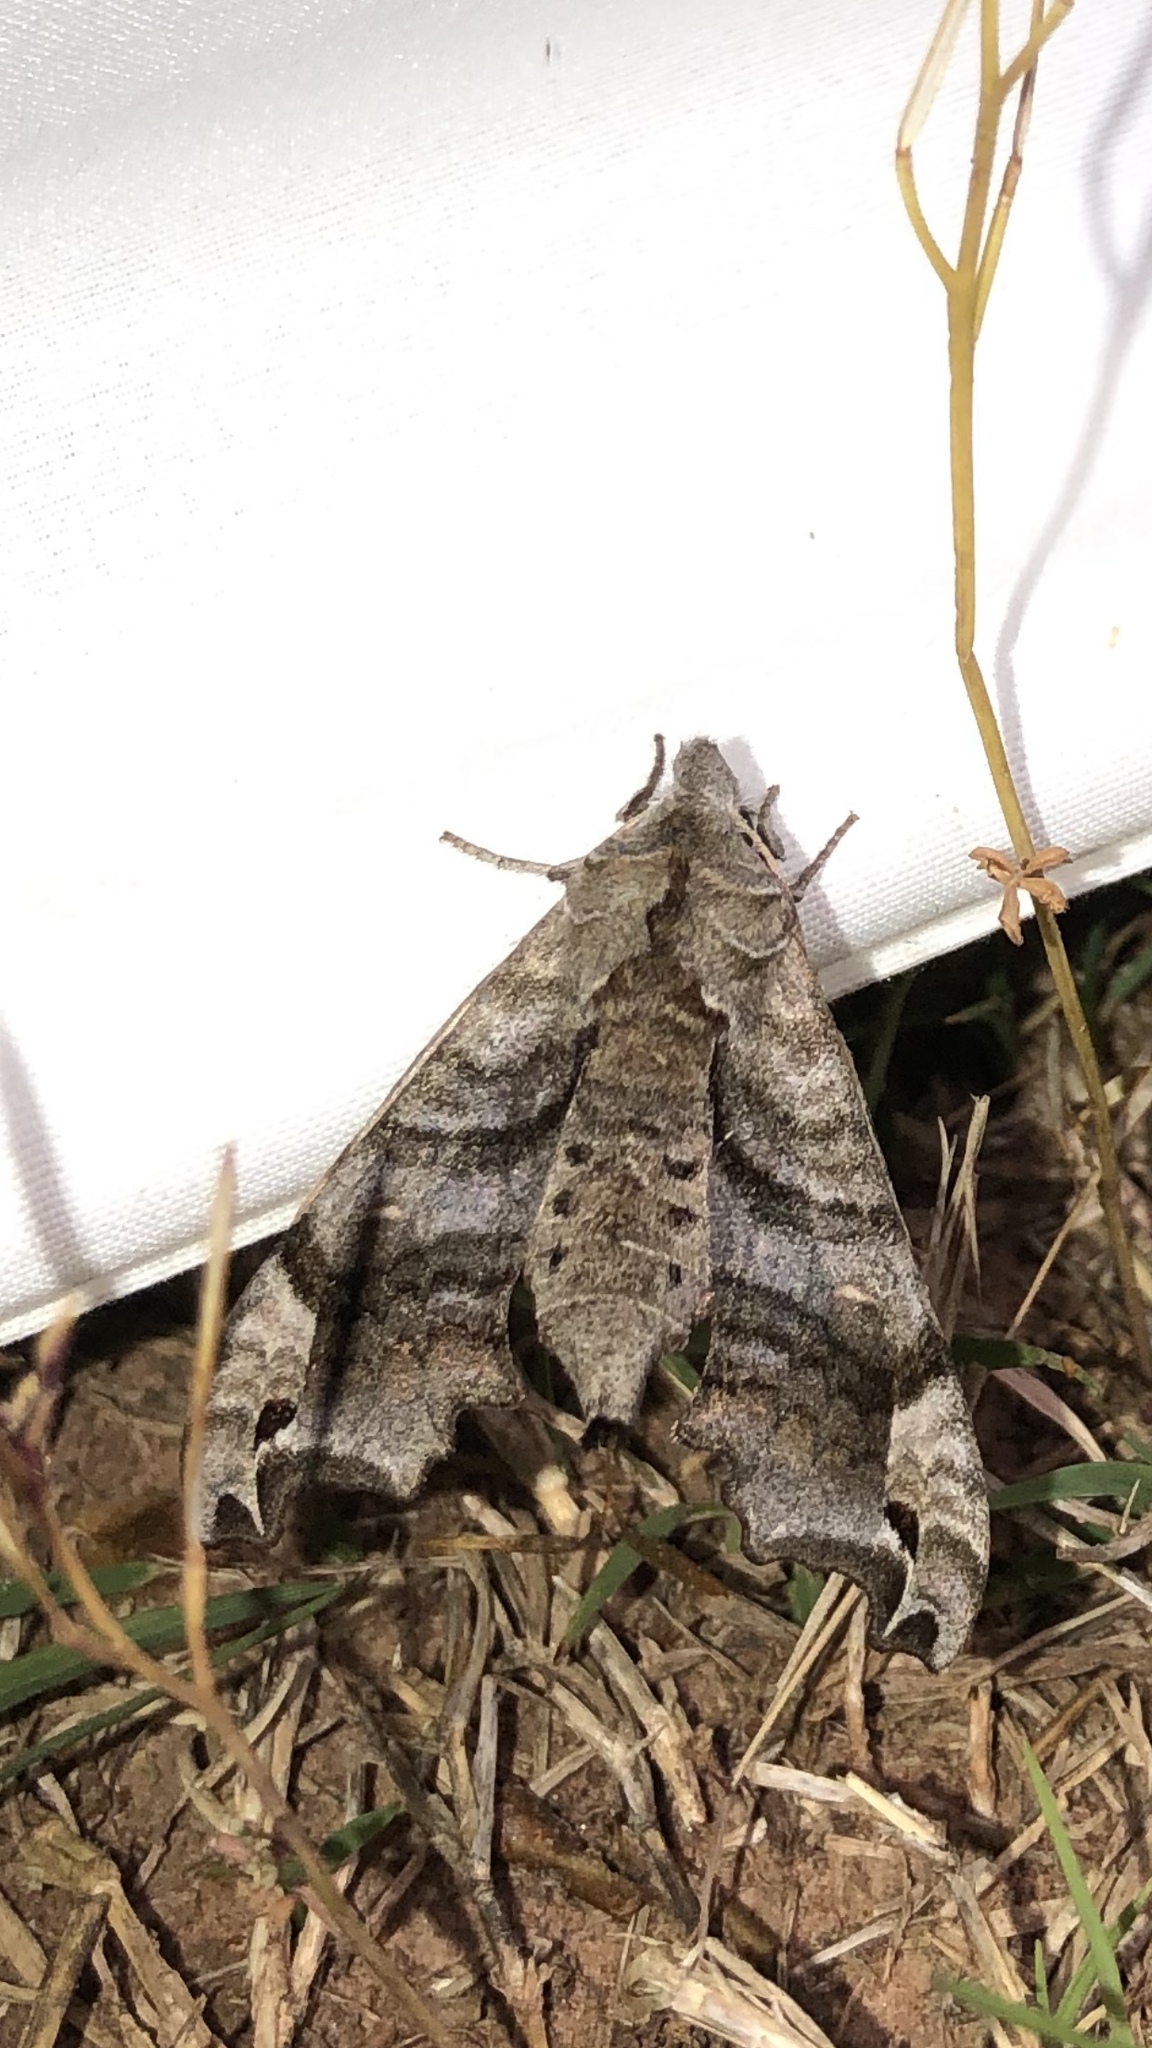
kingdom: Animalia
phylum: Arthropoda
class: Insecta
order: Lepidoptera
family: Sphingidae
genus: Deidamia
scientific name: Deidamia inscriptum
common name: Lettered sphinx
